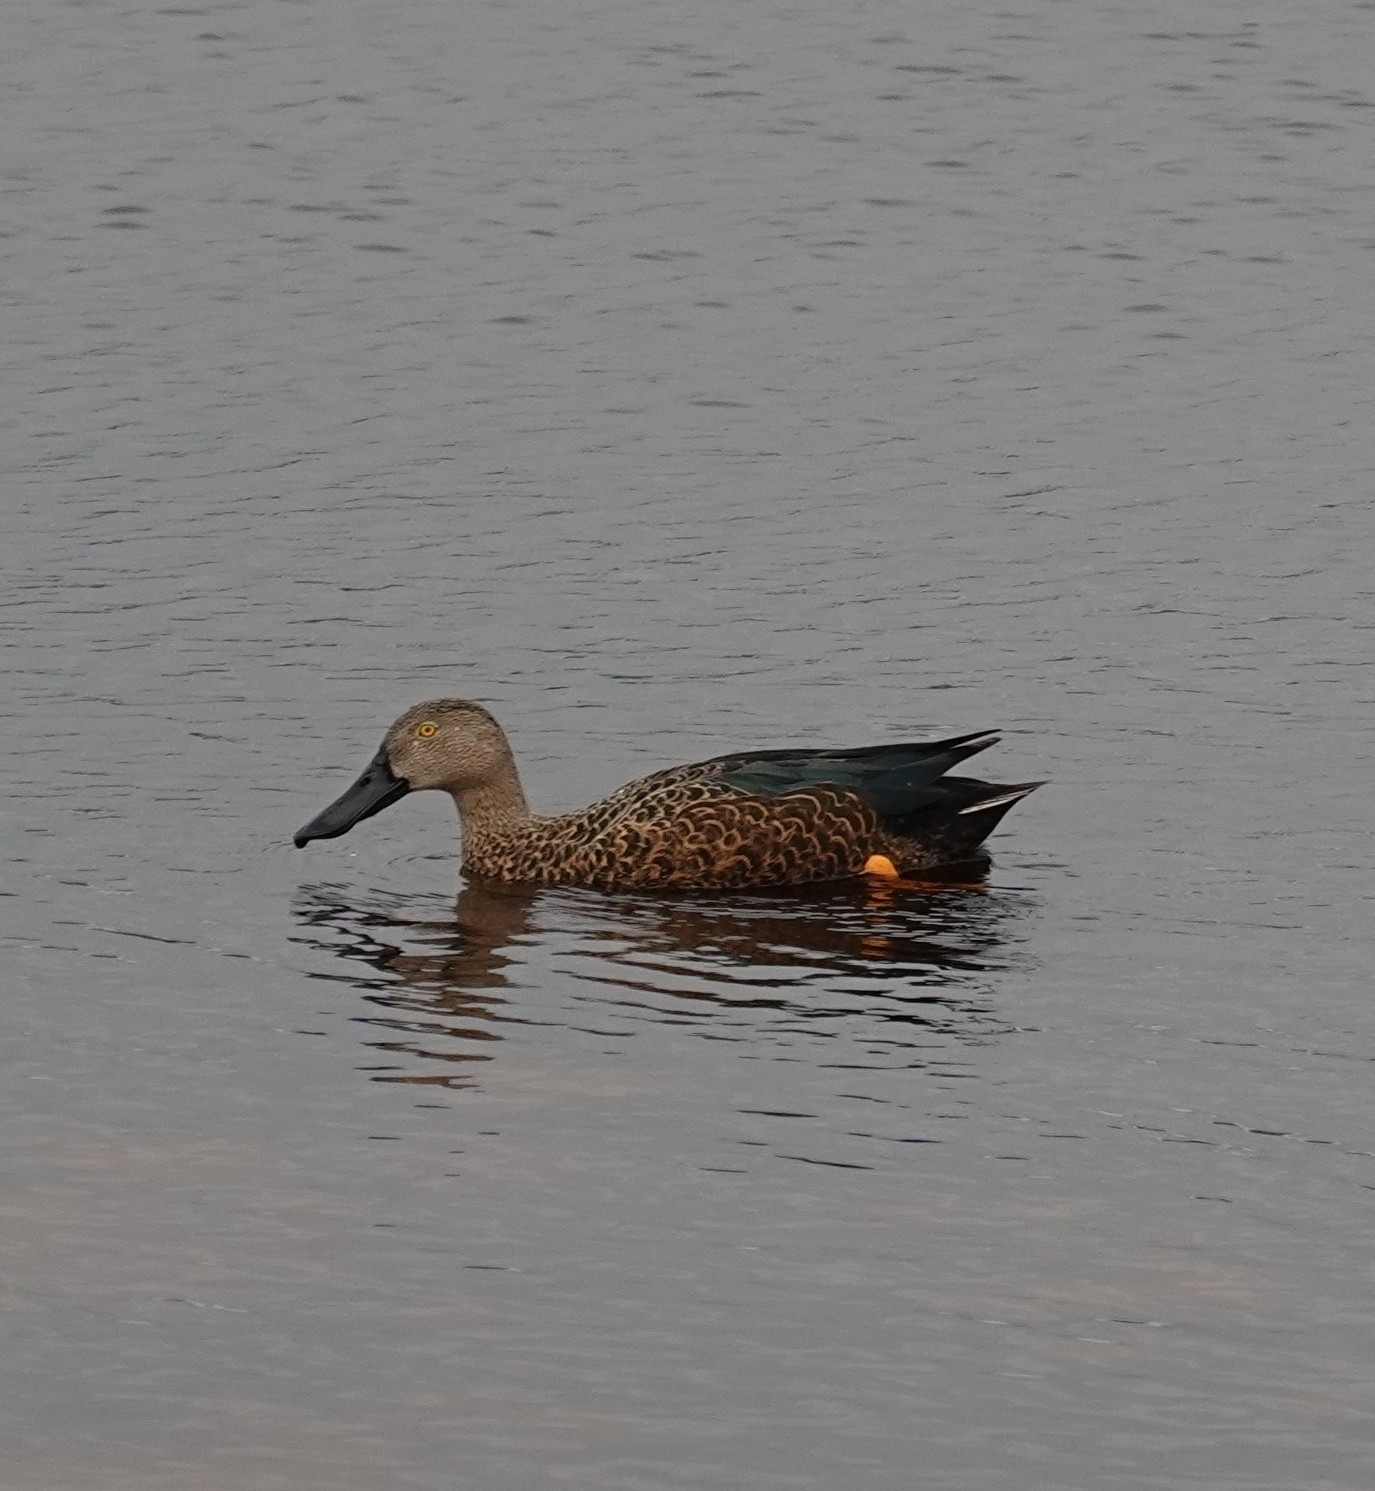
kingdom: Animalia
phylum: Chordata
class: Aves
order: Anseriformes
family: Anatidae
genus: Spatula
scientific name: Spatula smithii
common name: Cape shoveler
